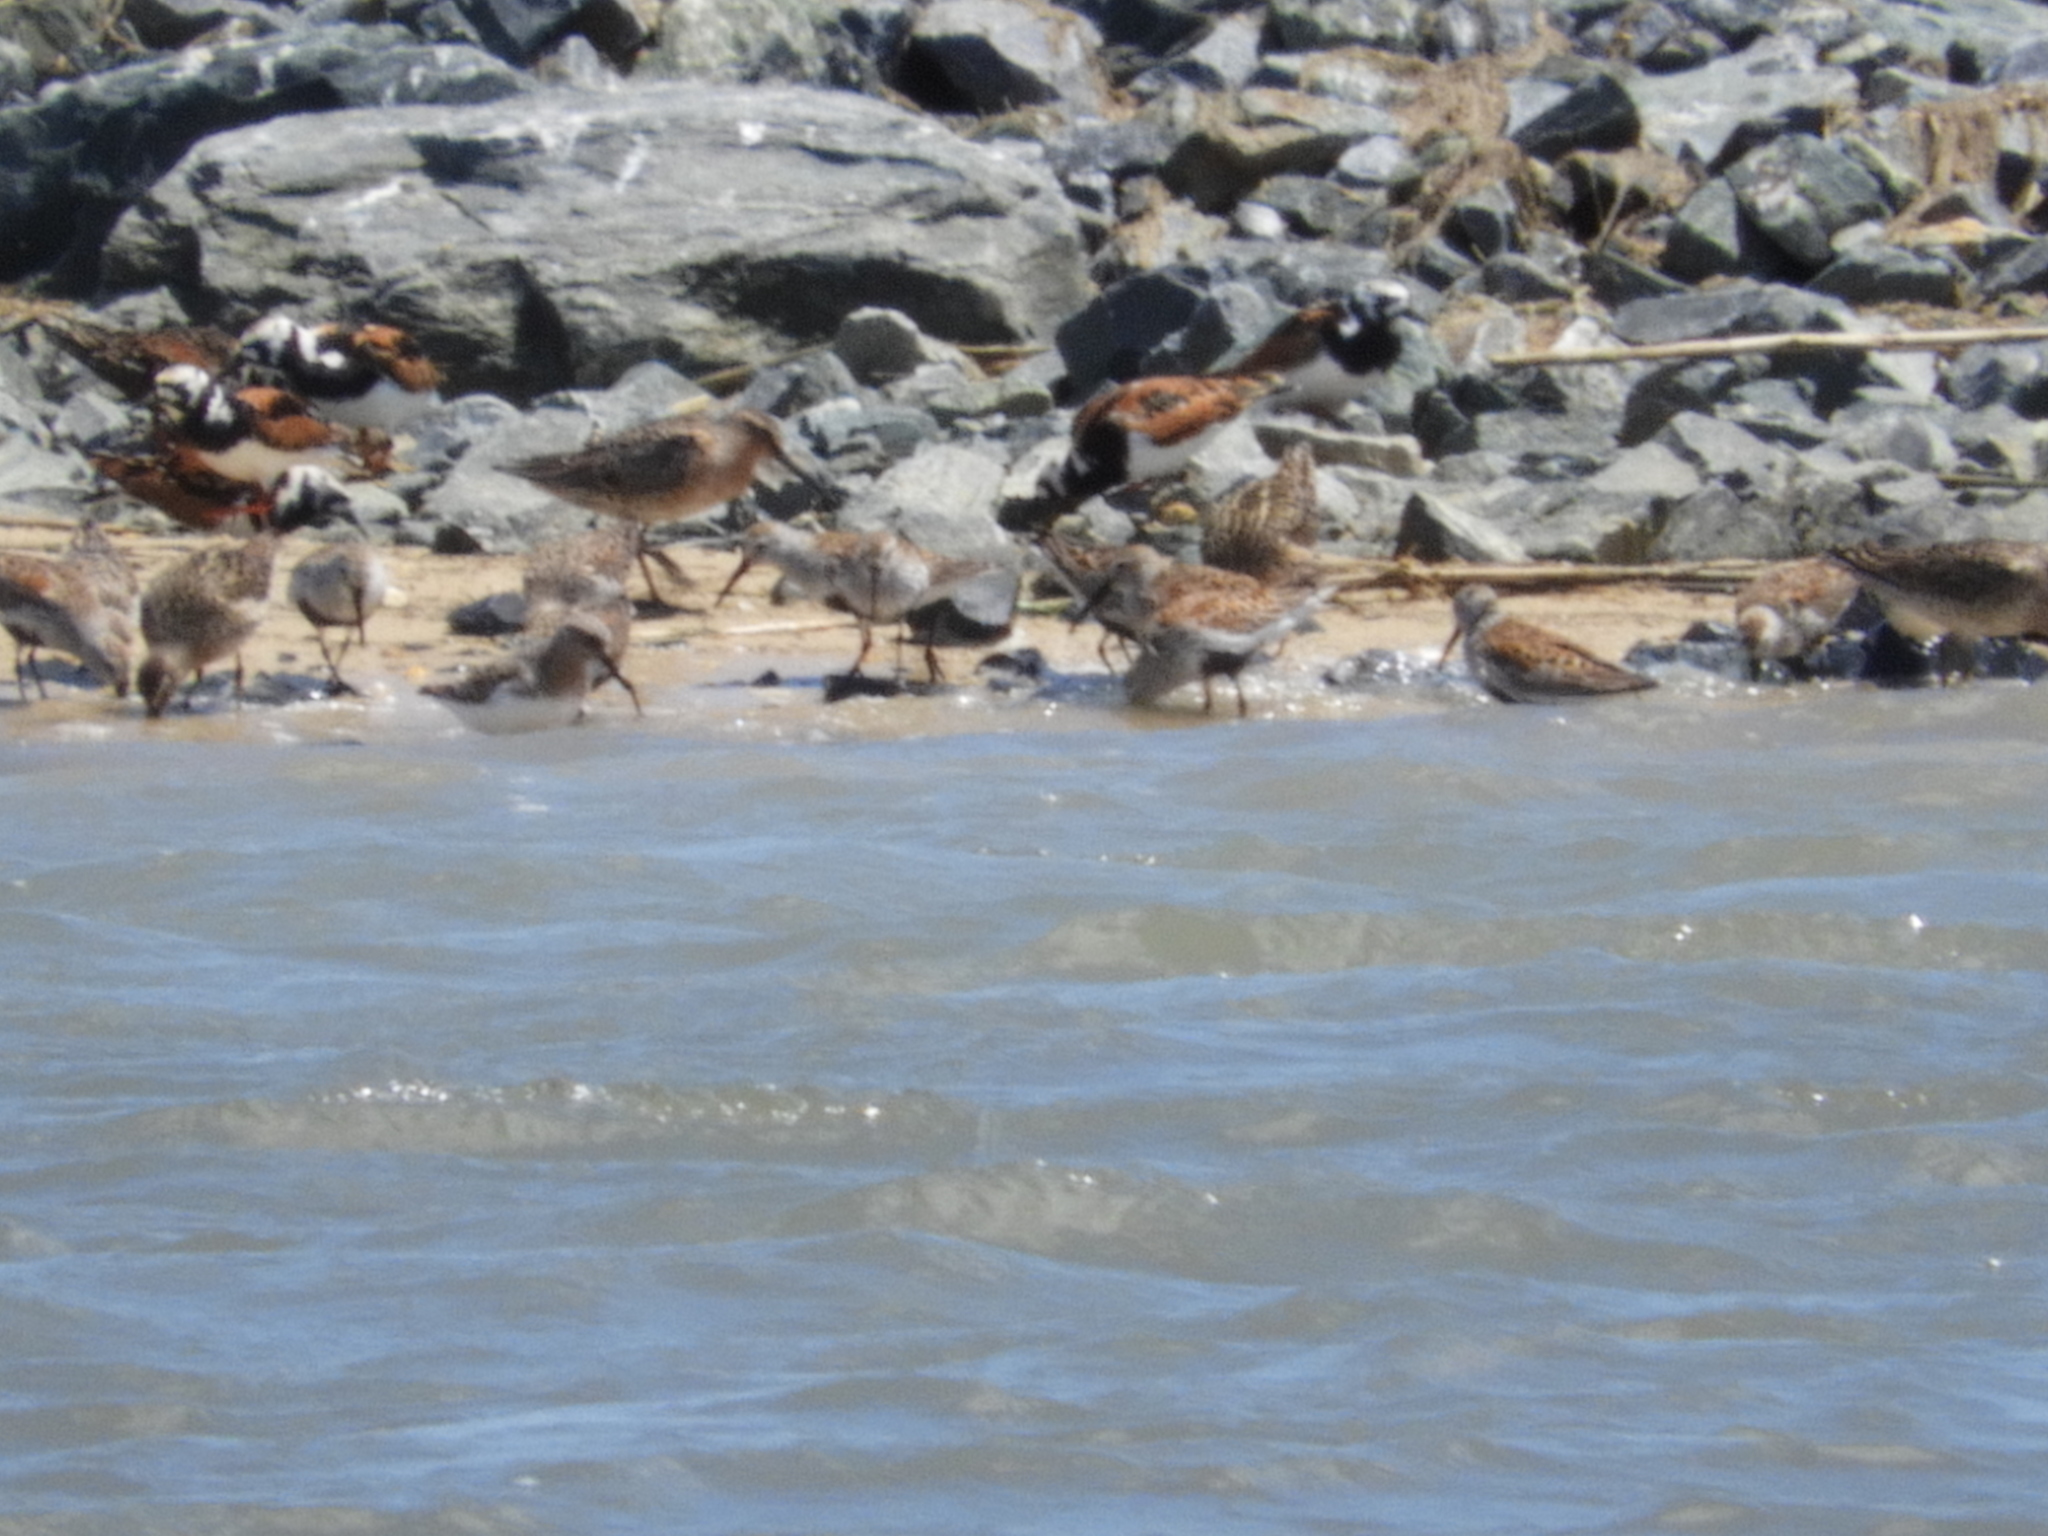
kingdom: Animalia
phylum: Chordata
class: Aves
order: Charadriiformes
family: Scolopacidae
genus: Calidris
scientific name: Calidris alpina
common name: Dunlin
